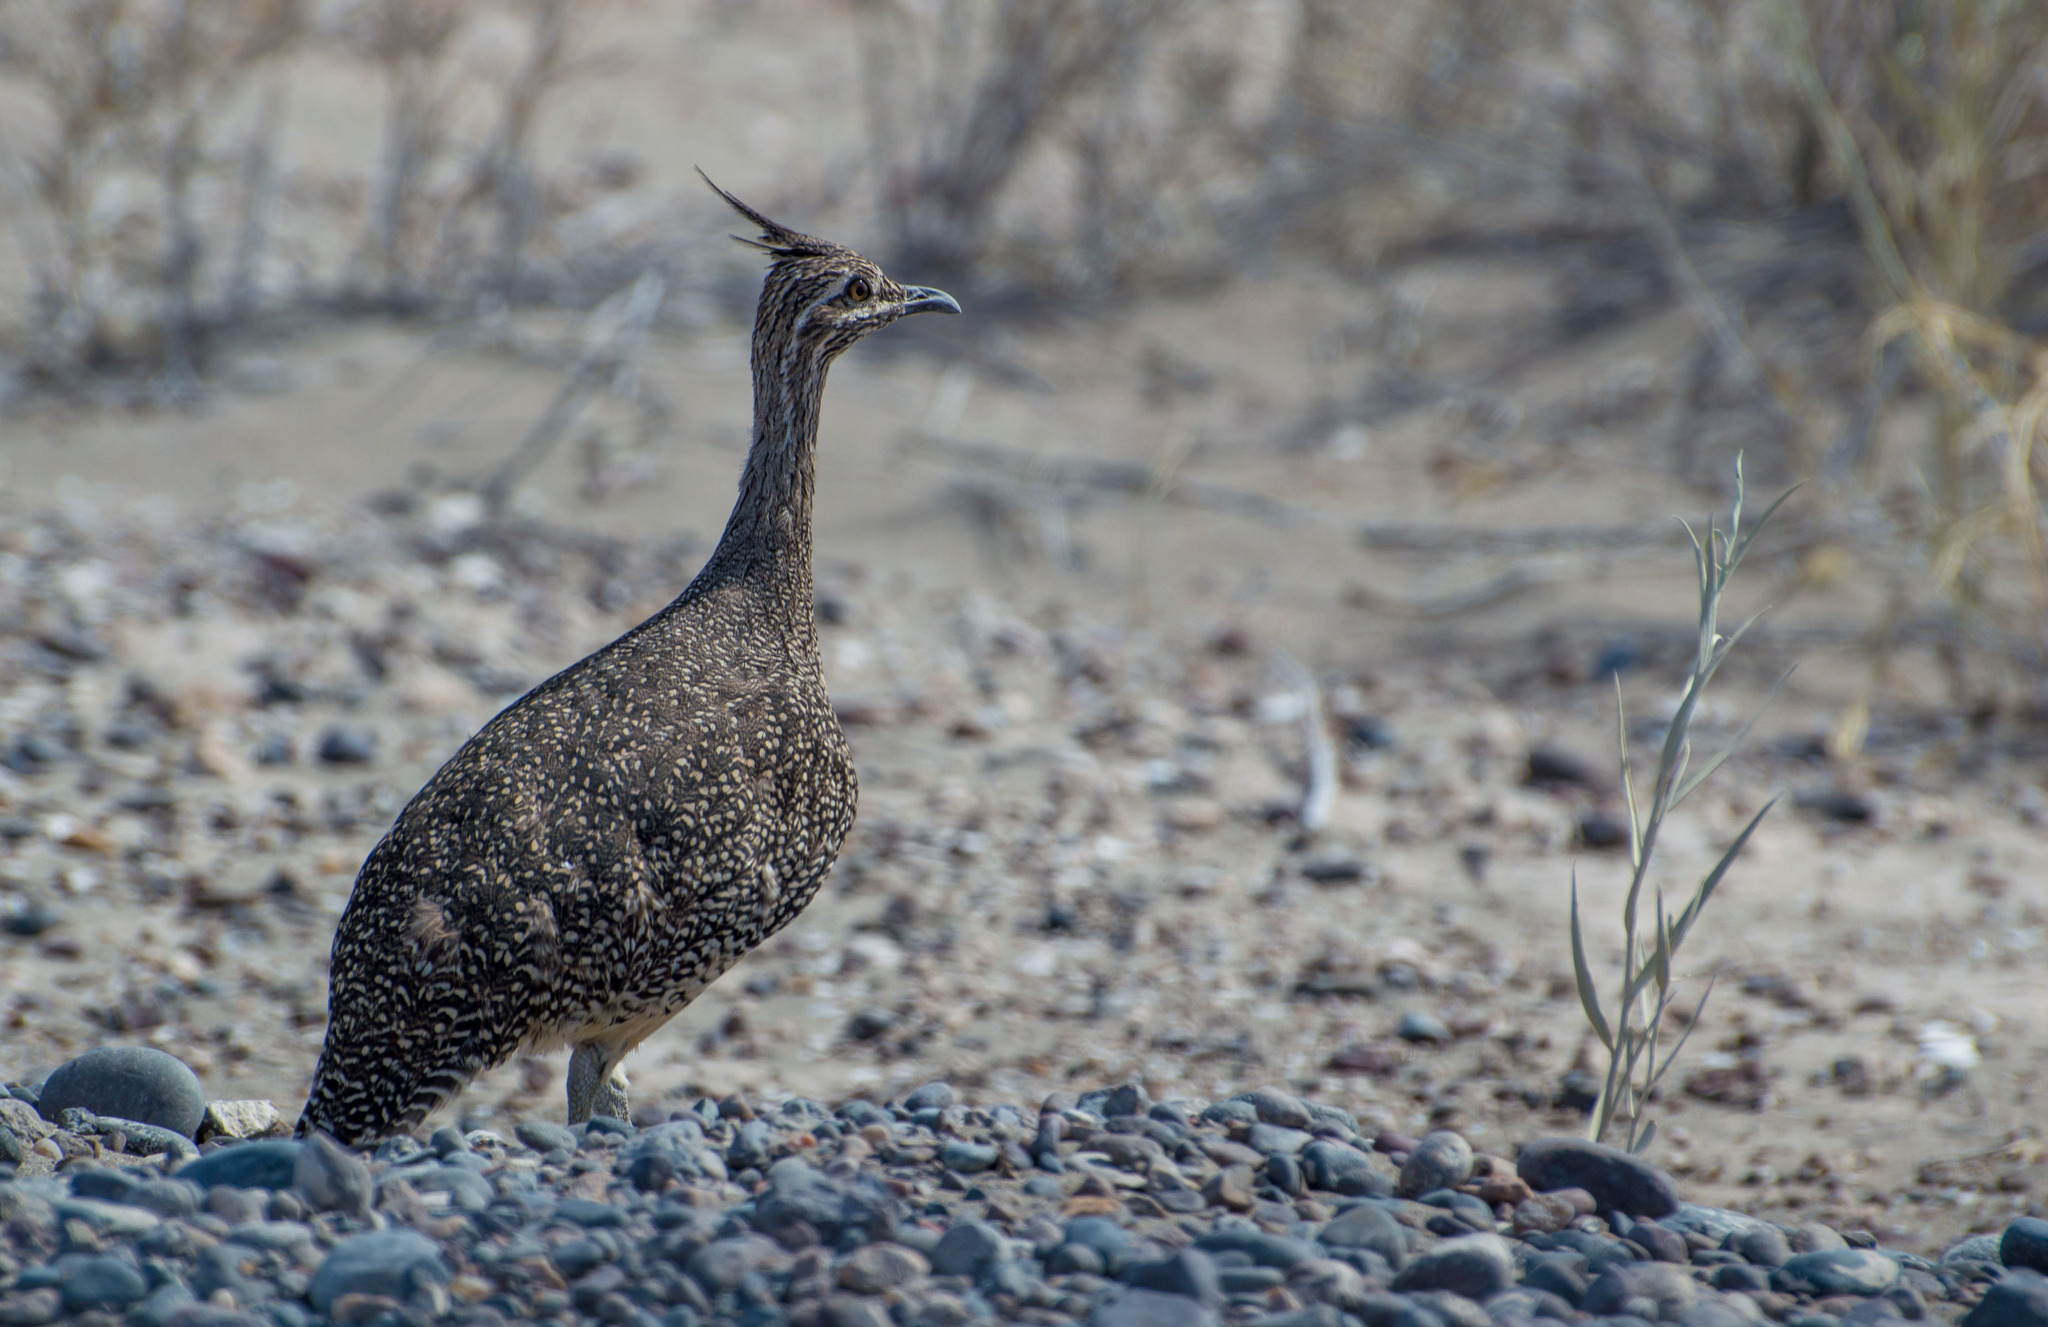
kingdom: Animalia
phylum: Chordata
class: Aves
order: Tinamiformes
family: Tinamidae
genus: Eudromia
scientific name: Eudromia elegans
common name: Elegant crested tinamou
